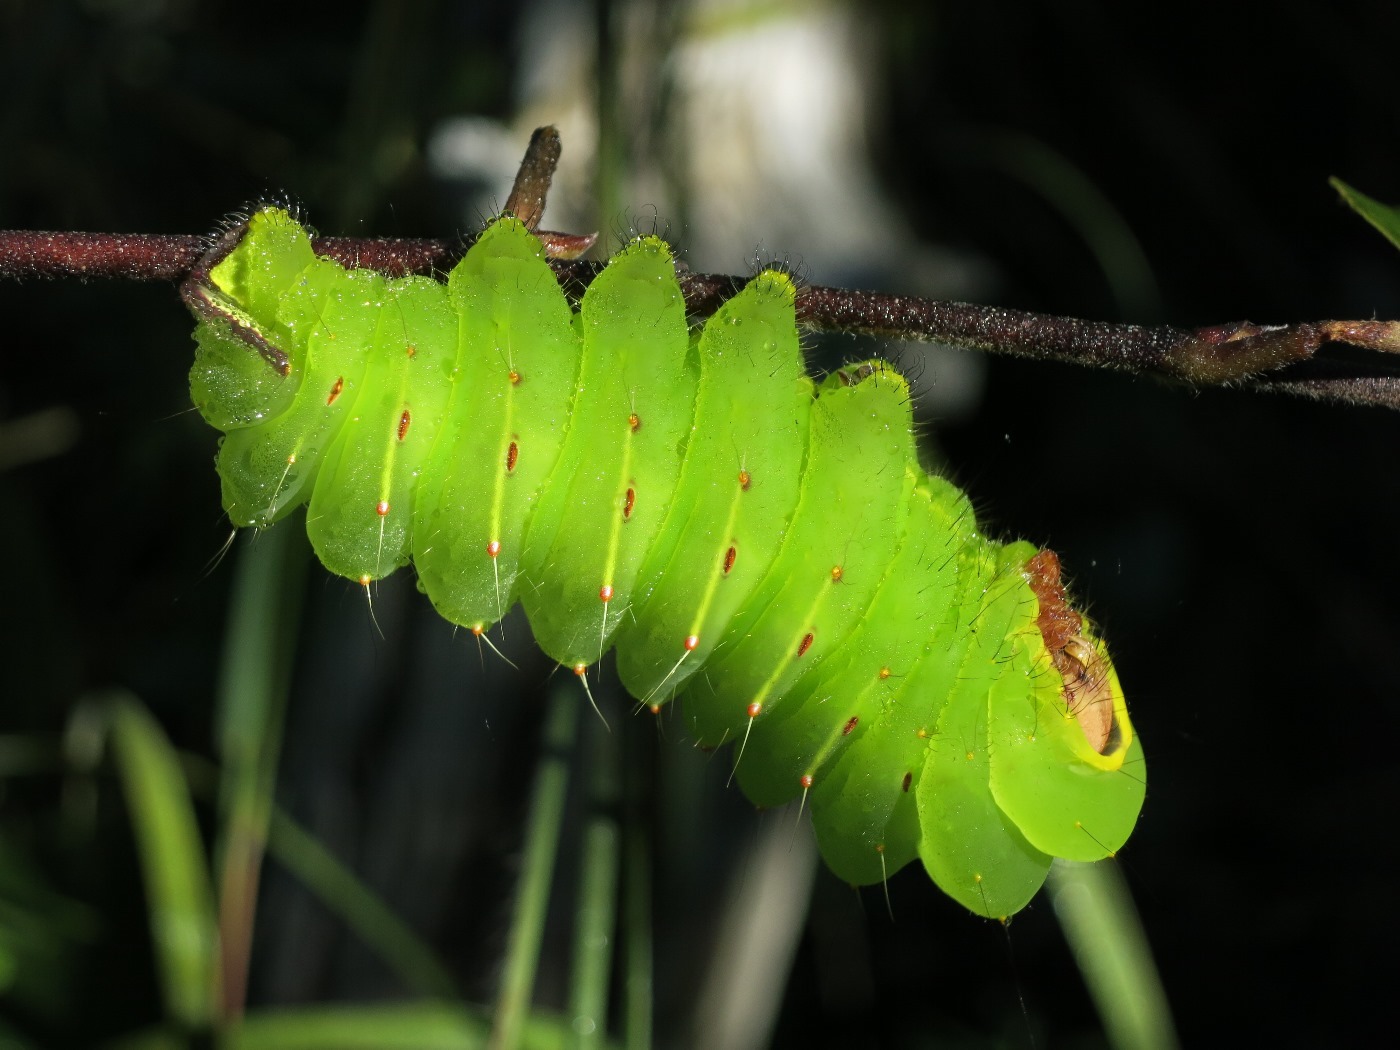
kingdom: Animalia
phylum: Arthropoda
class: Insecta
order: Lepidoptera
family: Saturniidae
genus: Antheraea
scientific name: Antheraea polyphemus
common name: Polyphemus moth
